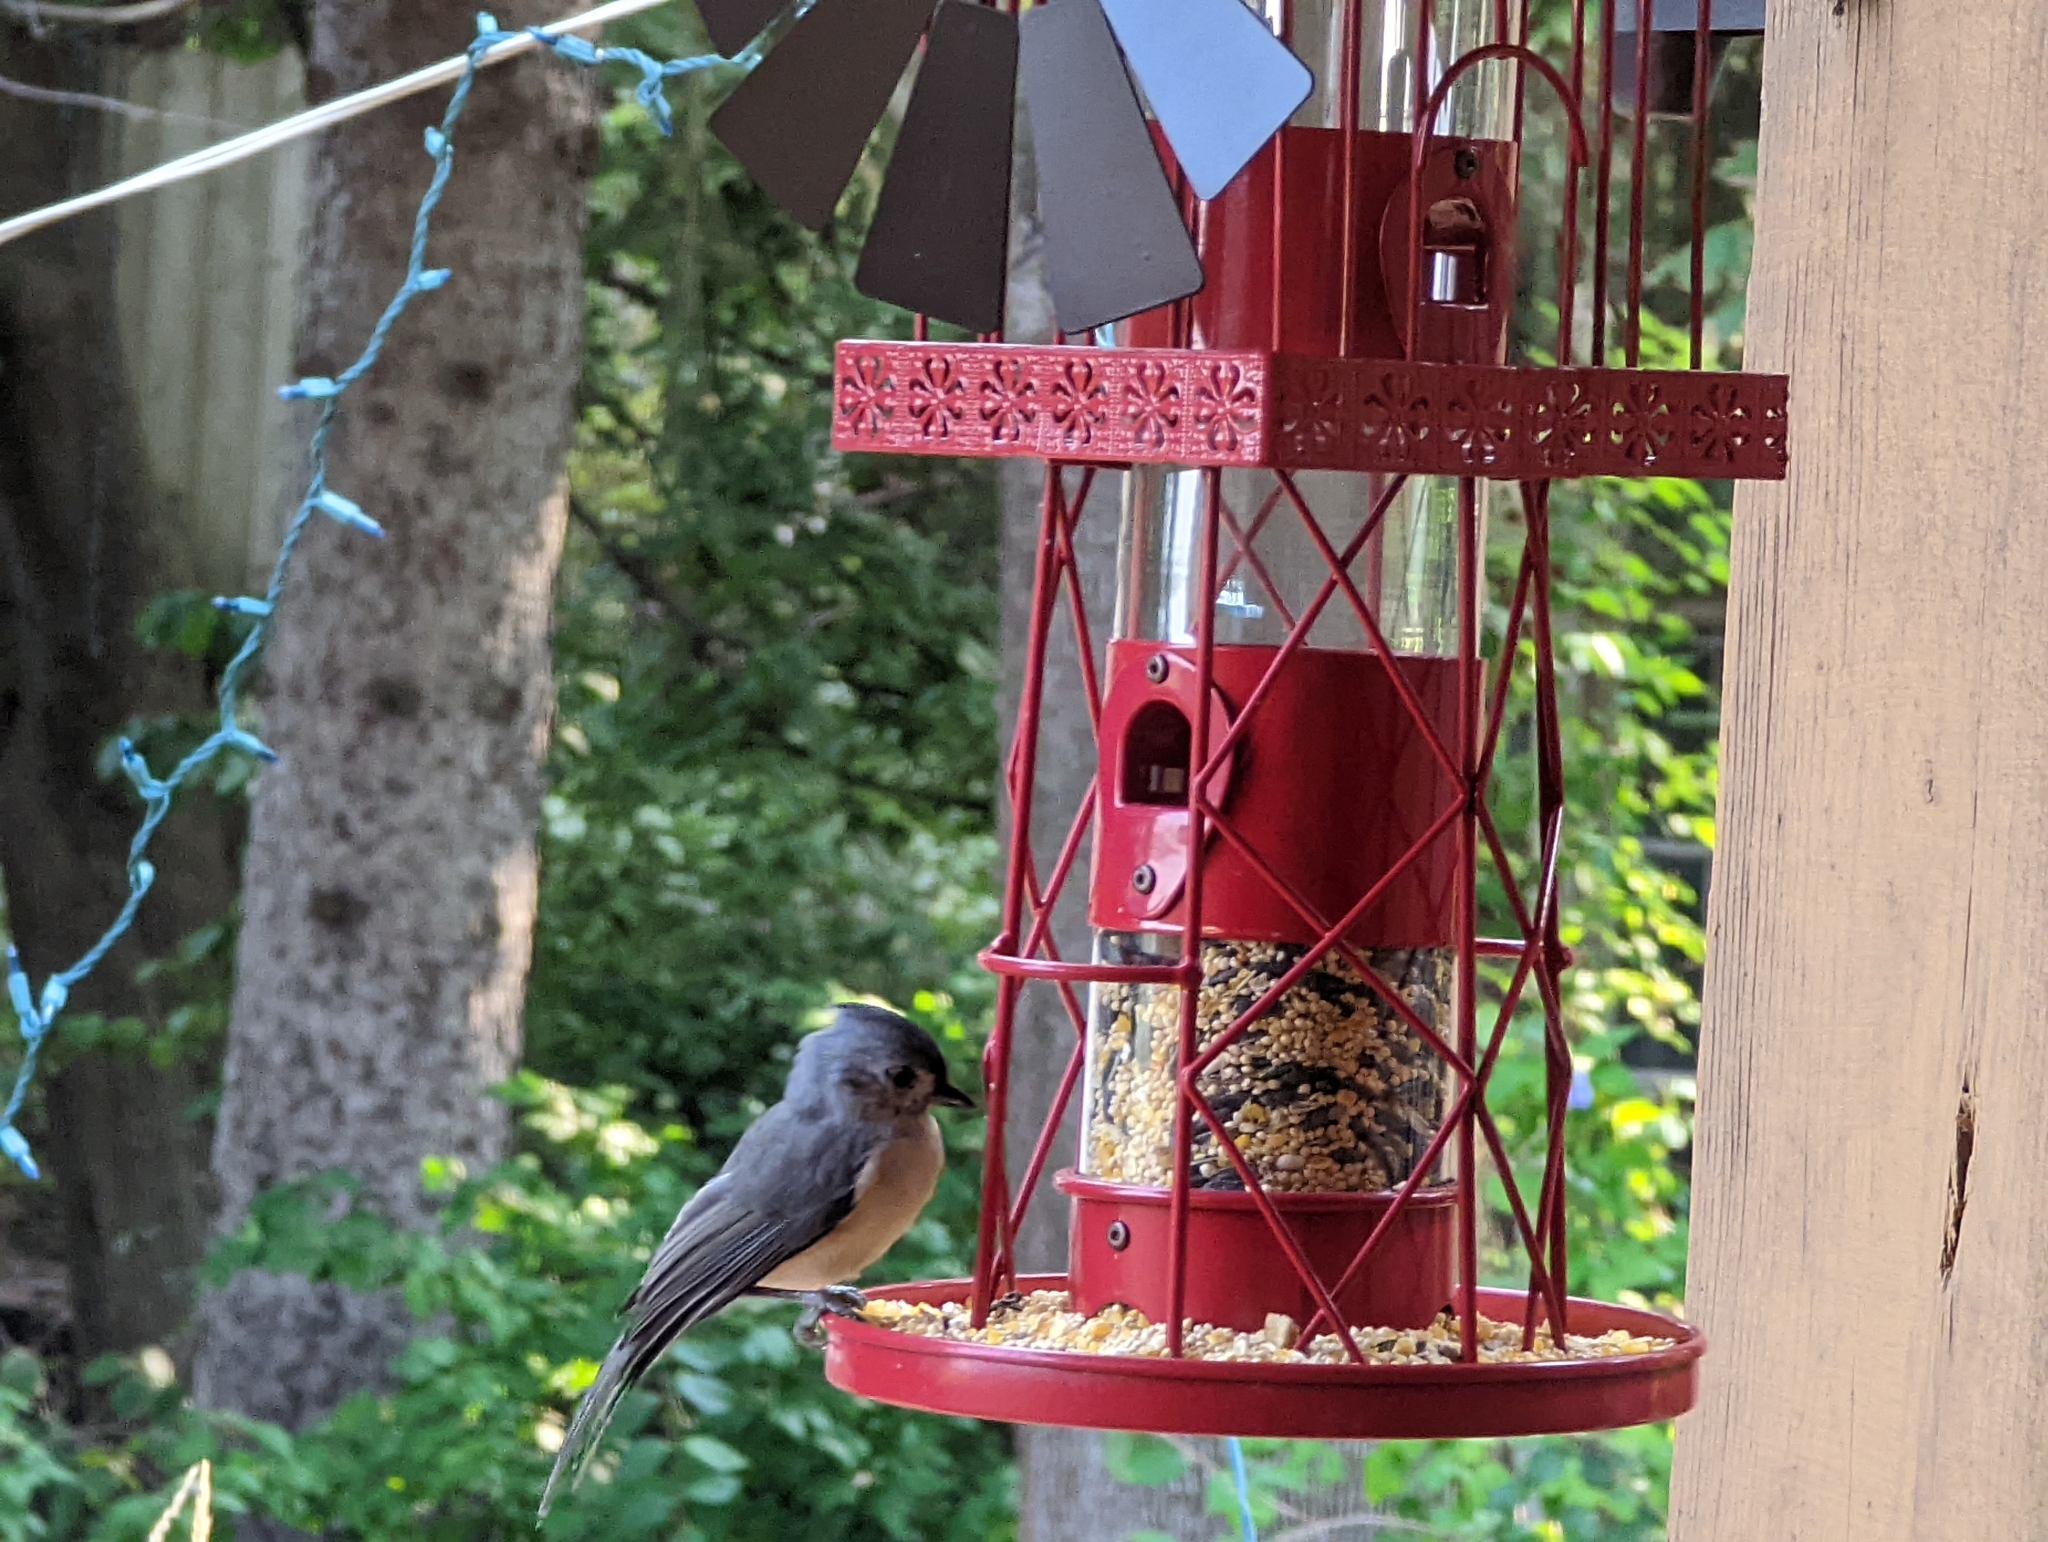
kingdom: Animalia
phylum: Chordata
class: Aves
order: Passeriformes
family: Paridae
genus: Baeolophus
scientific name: Baeolophus bicolor
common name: Tufted titmouse
